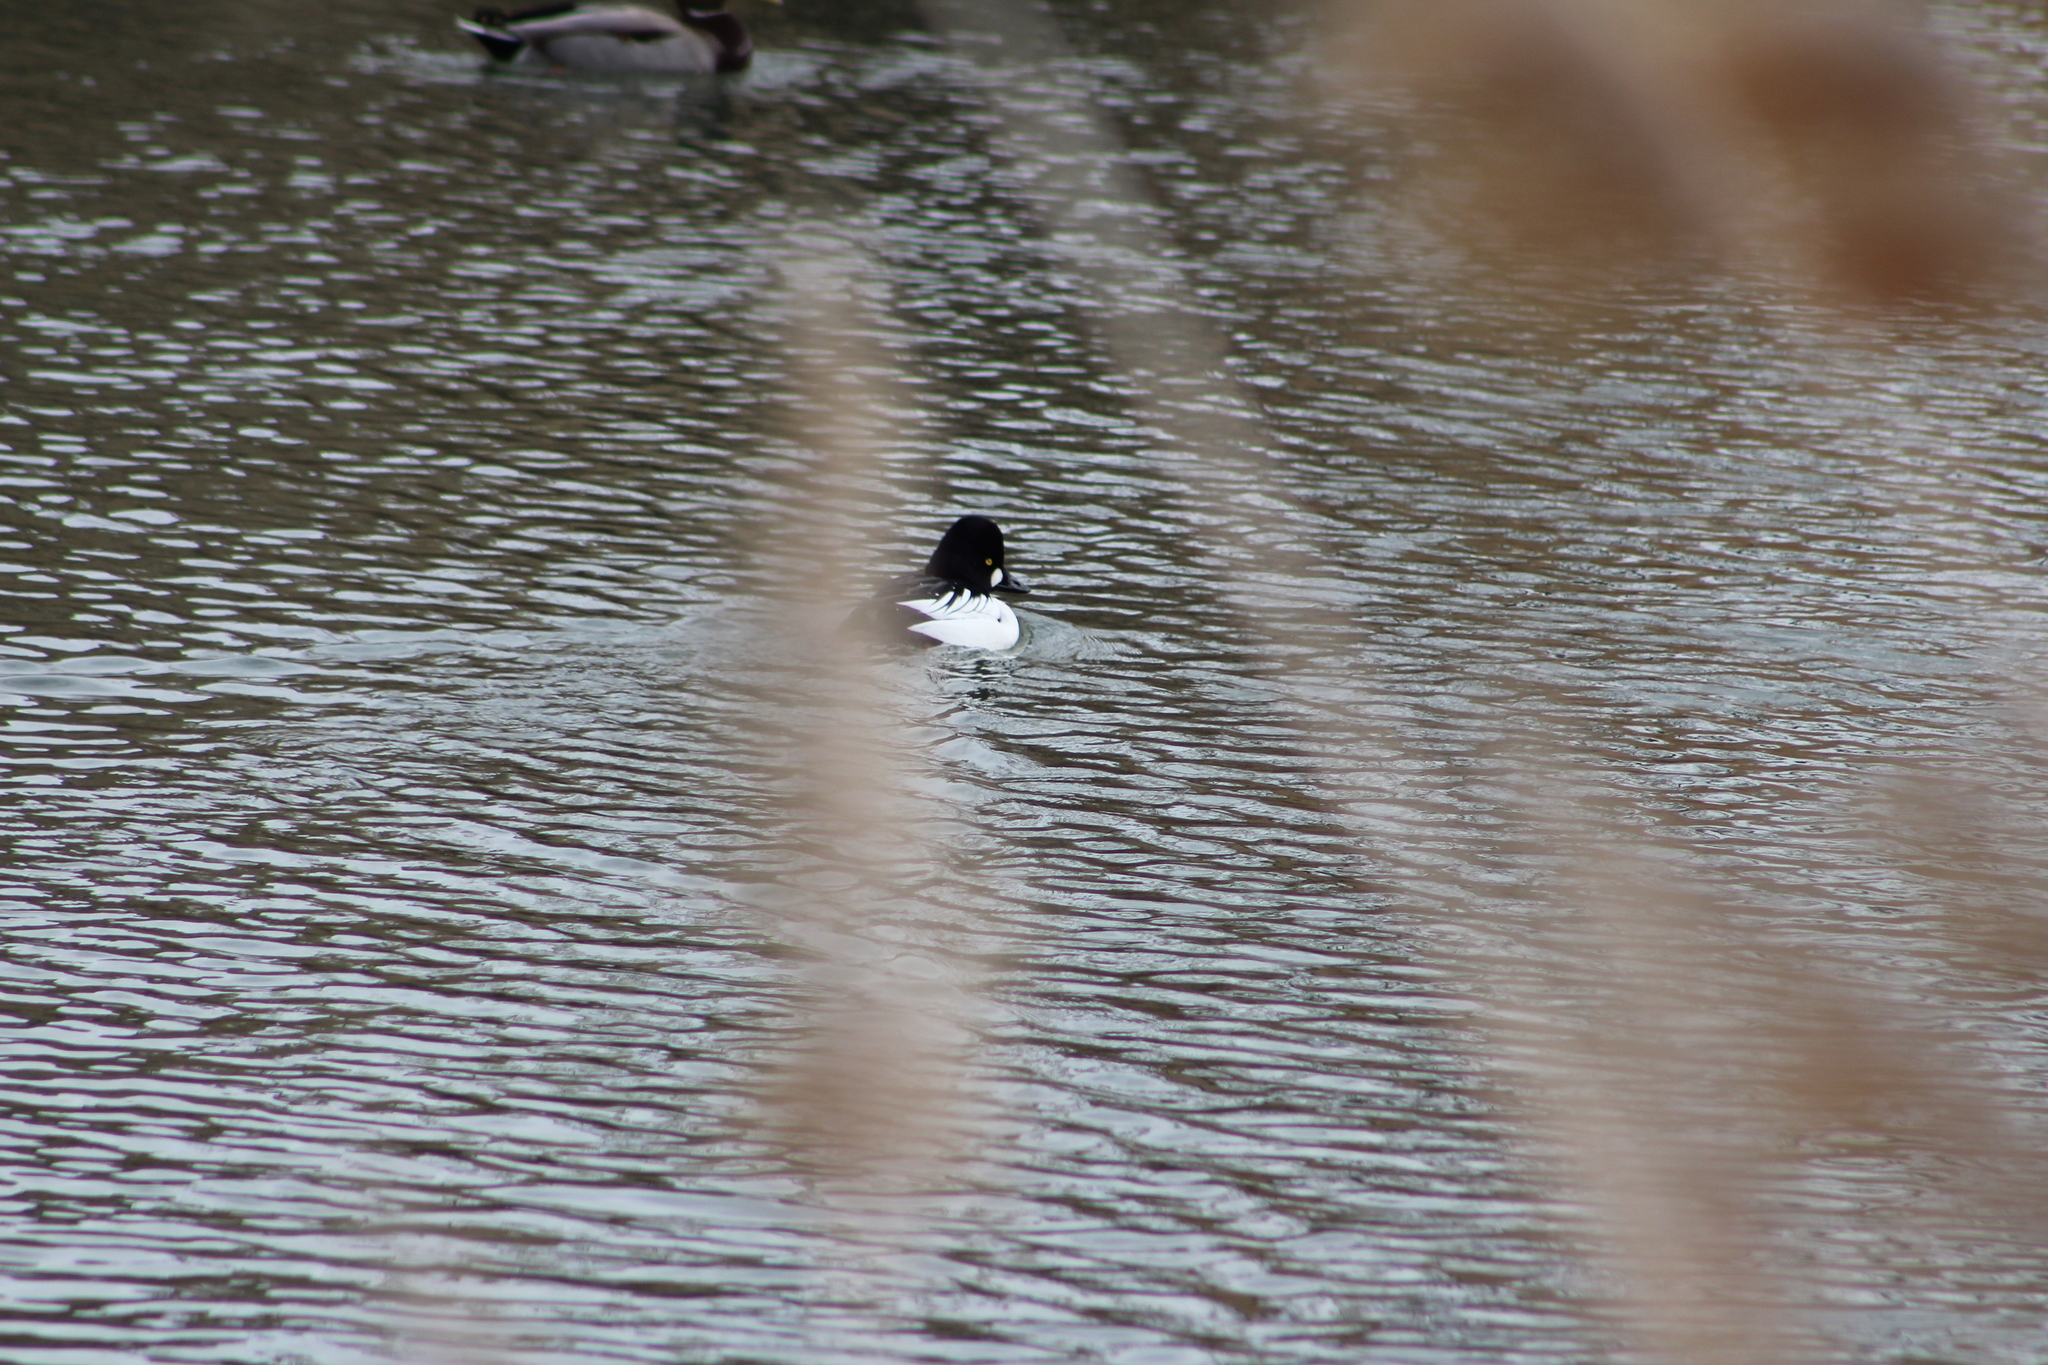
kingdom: Animalia
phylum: Chordata
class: Aves
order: Anseriformes
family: Anatidae
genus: Bucephala
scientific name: Bucephala clangula
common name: Common goldeneye
